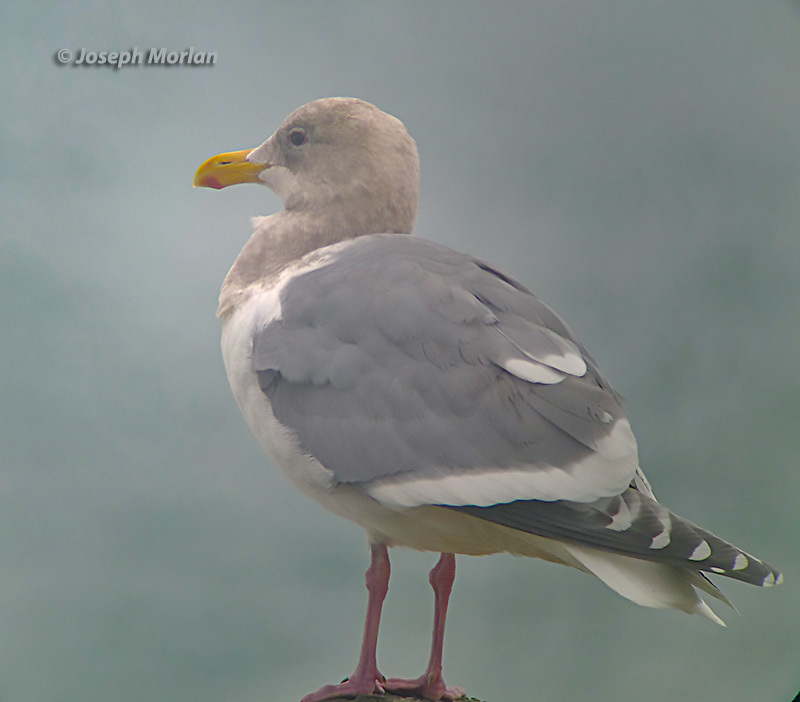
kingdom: Animalia
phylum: Chordata
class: Aves
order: Charadriiformes
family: Laridae
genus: Larus
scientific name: Larus
